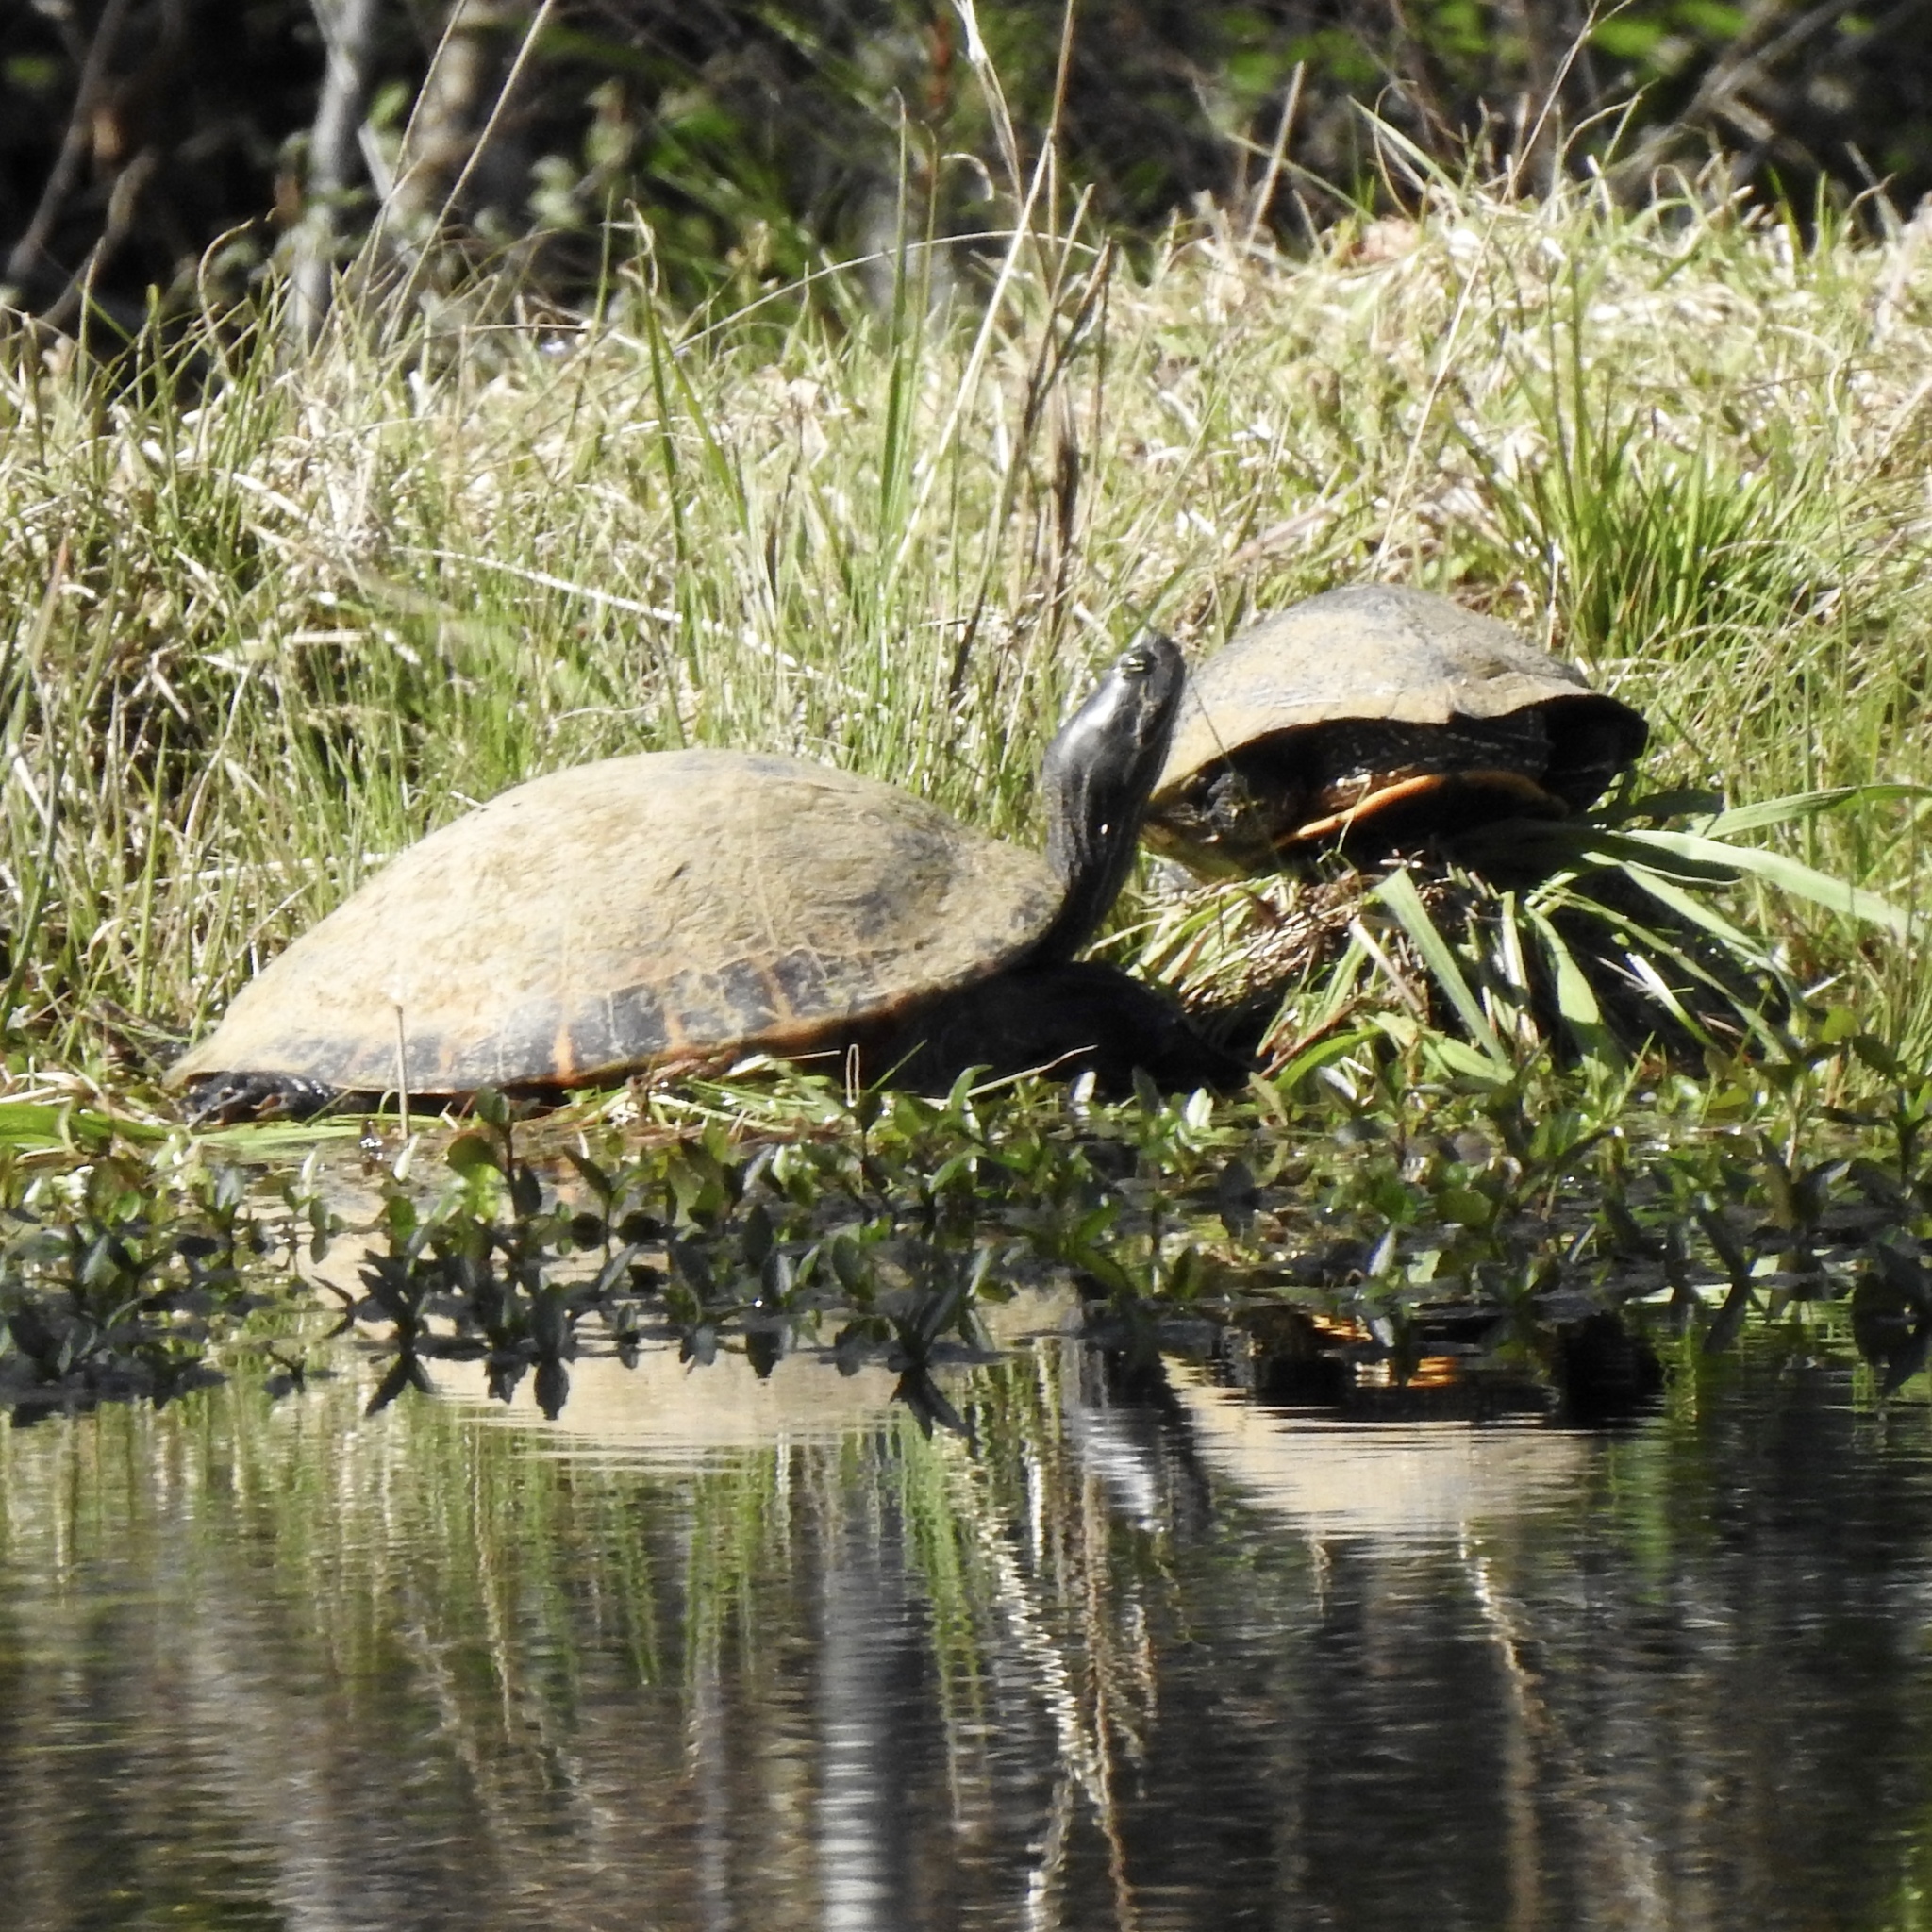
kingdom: Animalia
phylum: Chordata
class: Testudines
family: Emydidae
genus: Pseudemys
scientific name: Pseudemys concinna
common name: Eastern river cooter
